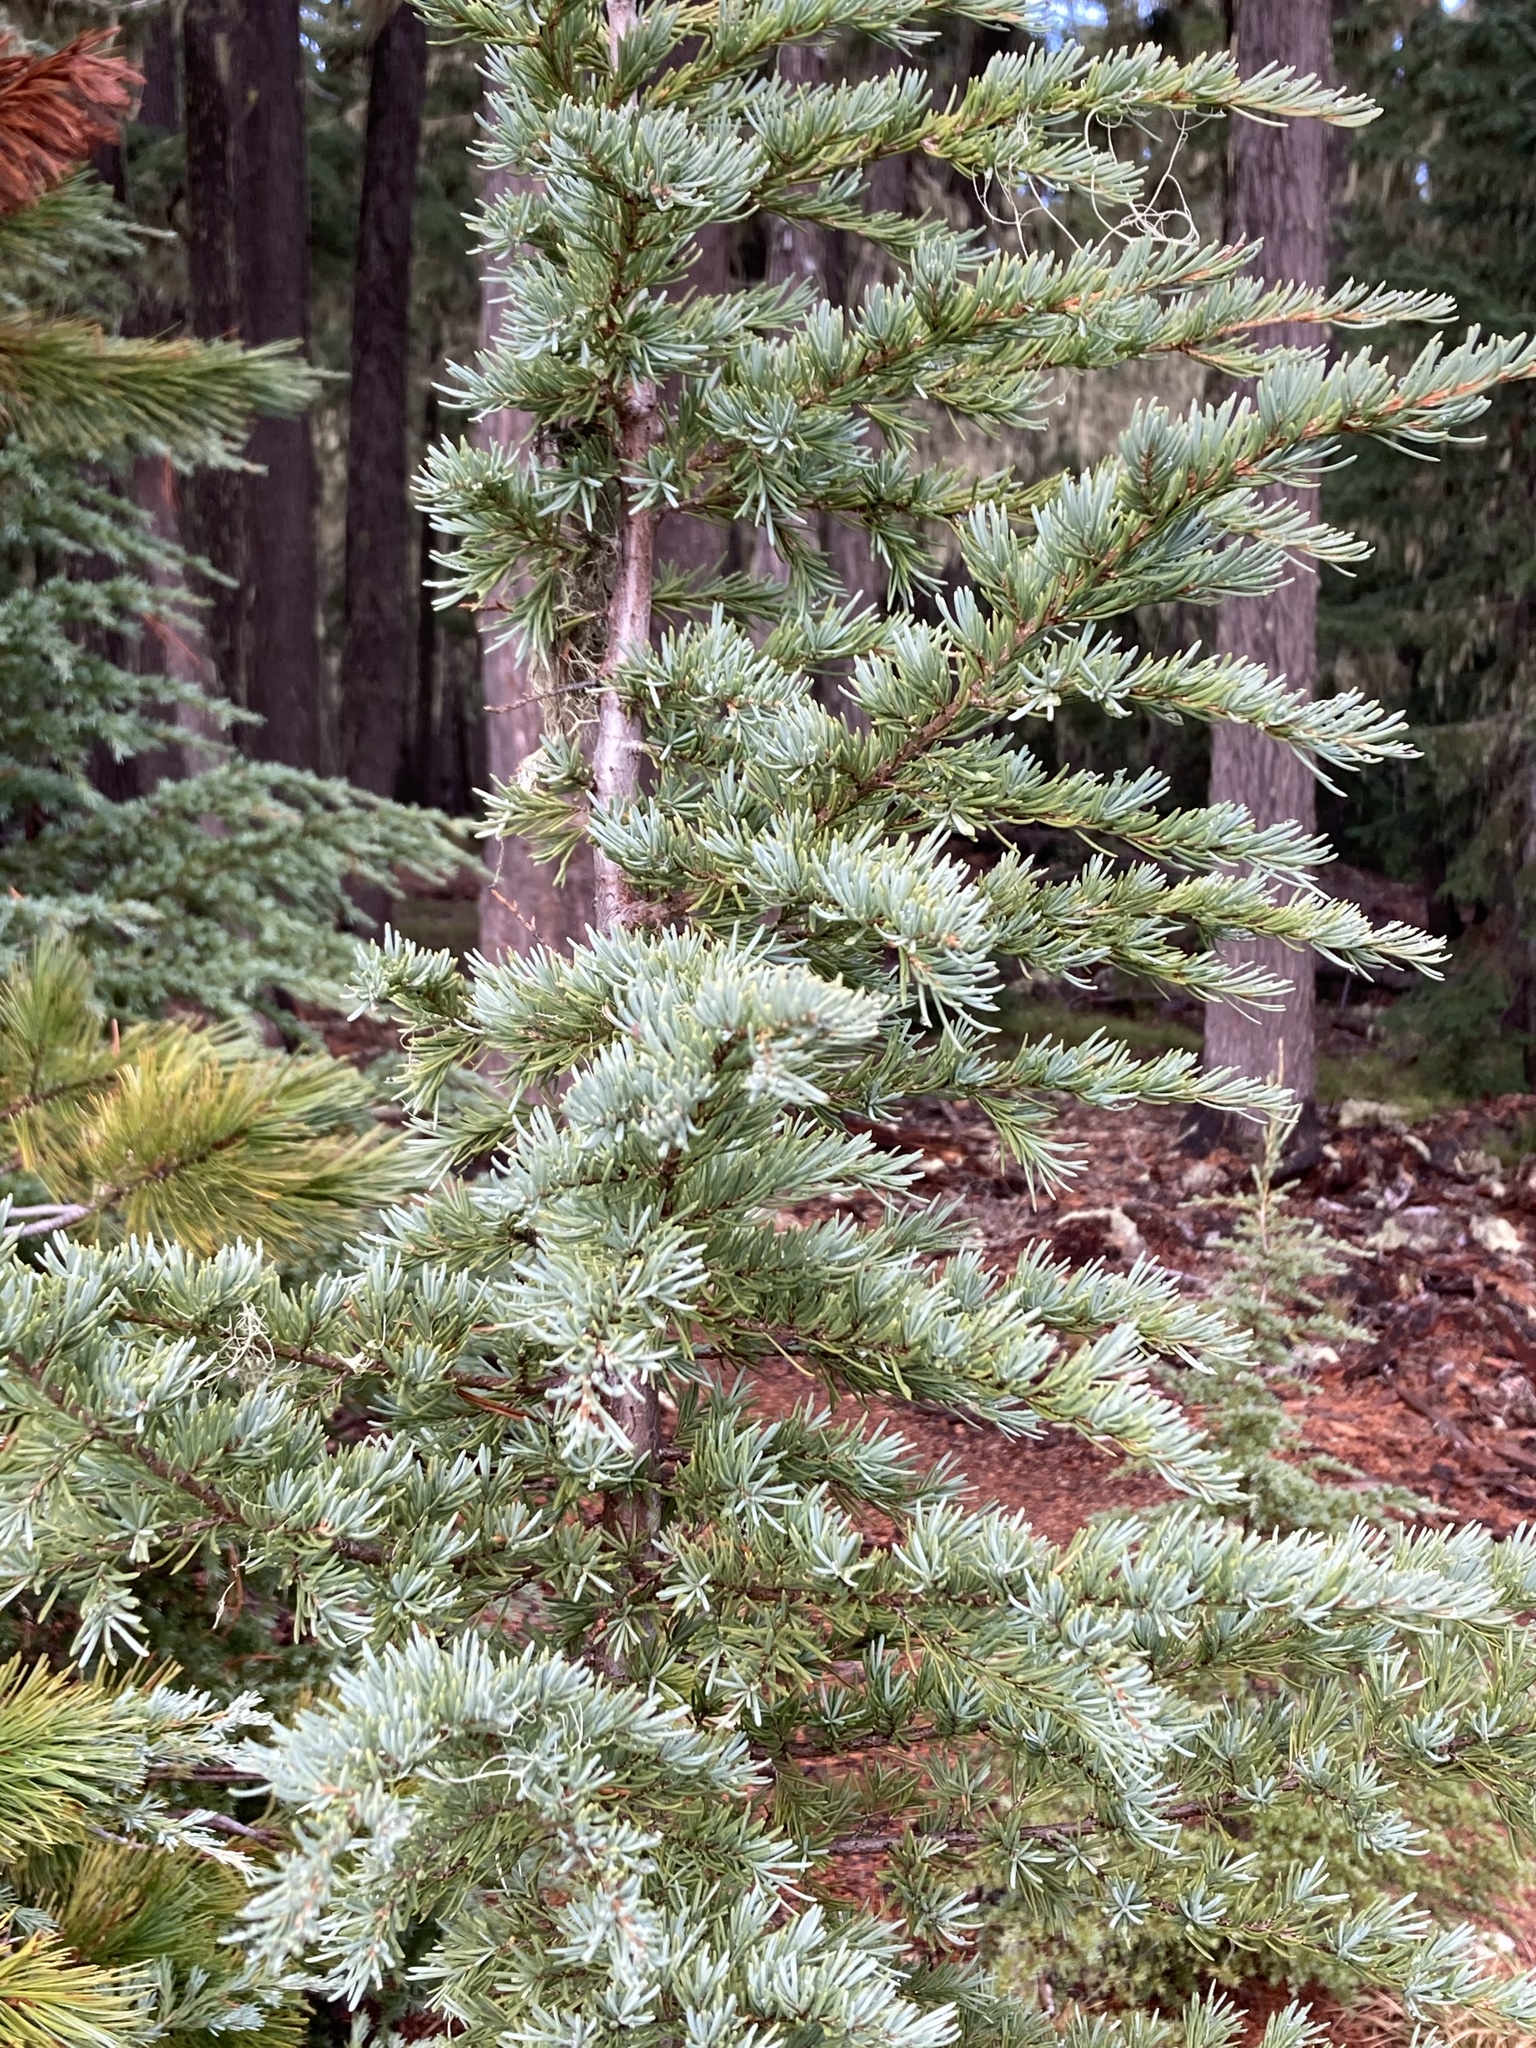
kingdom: Plantae
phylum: Tracheophyta
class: Pinopsida
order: Pinales
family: Pinaceae
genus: Tsuga
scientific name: Tsuga mertensiana
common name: Mountain hemlock
